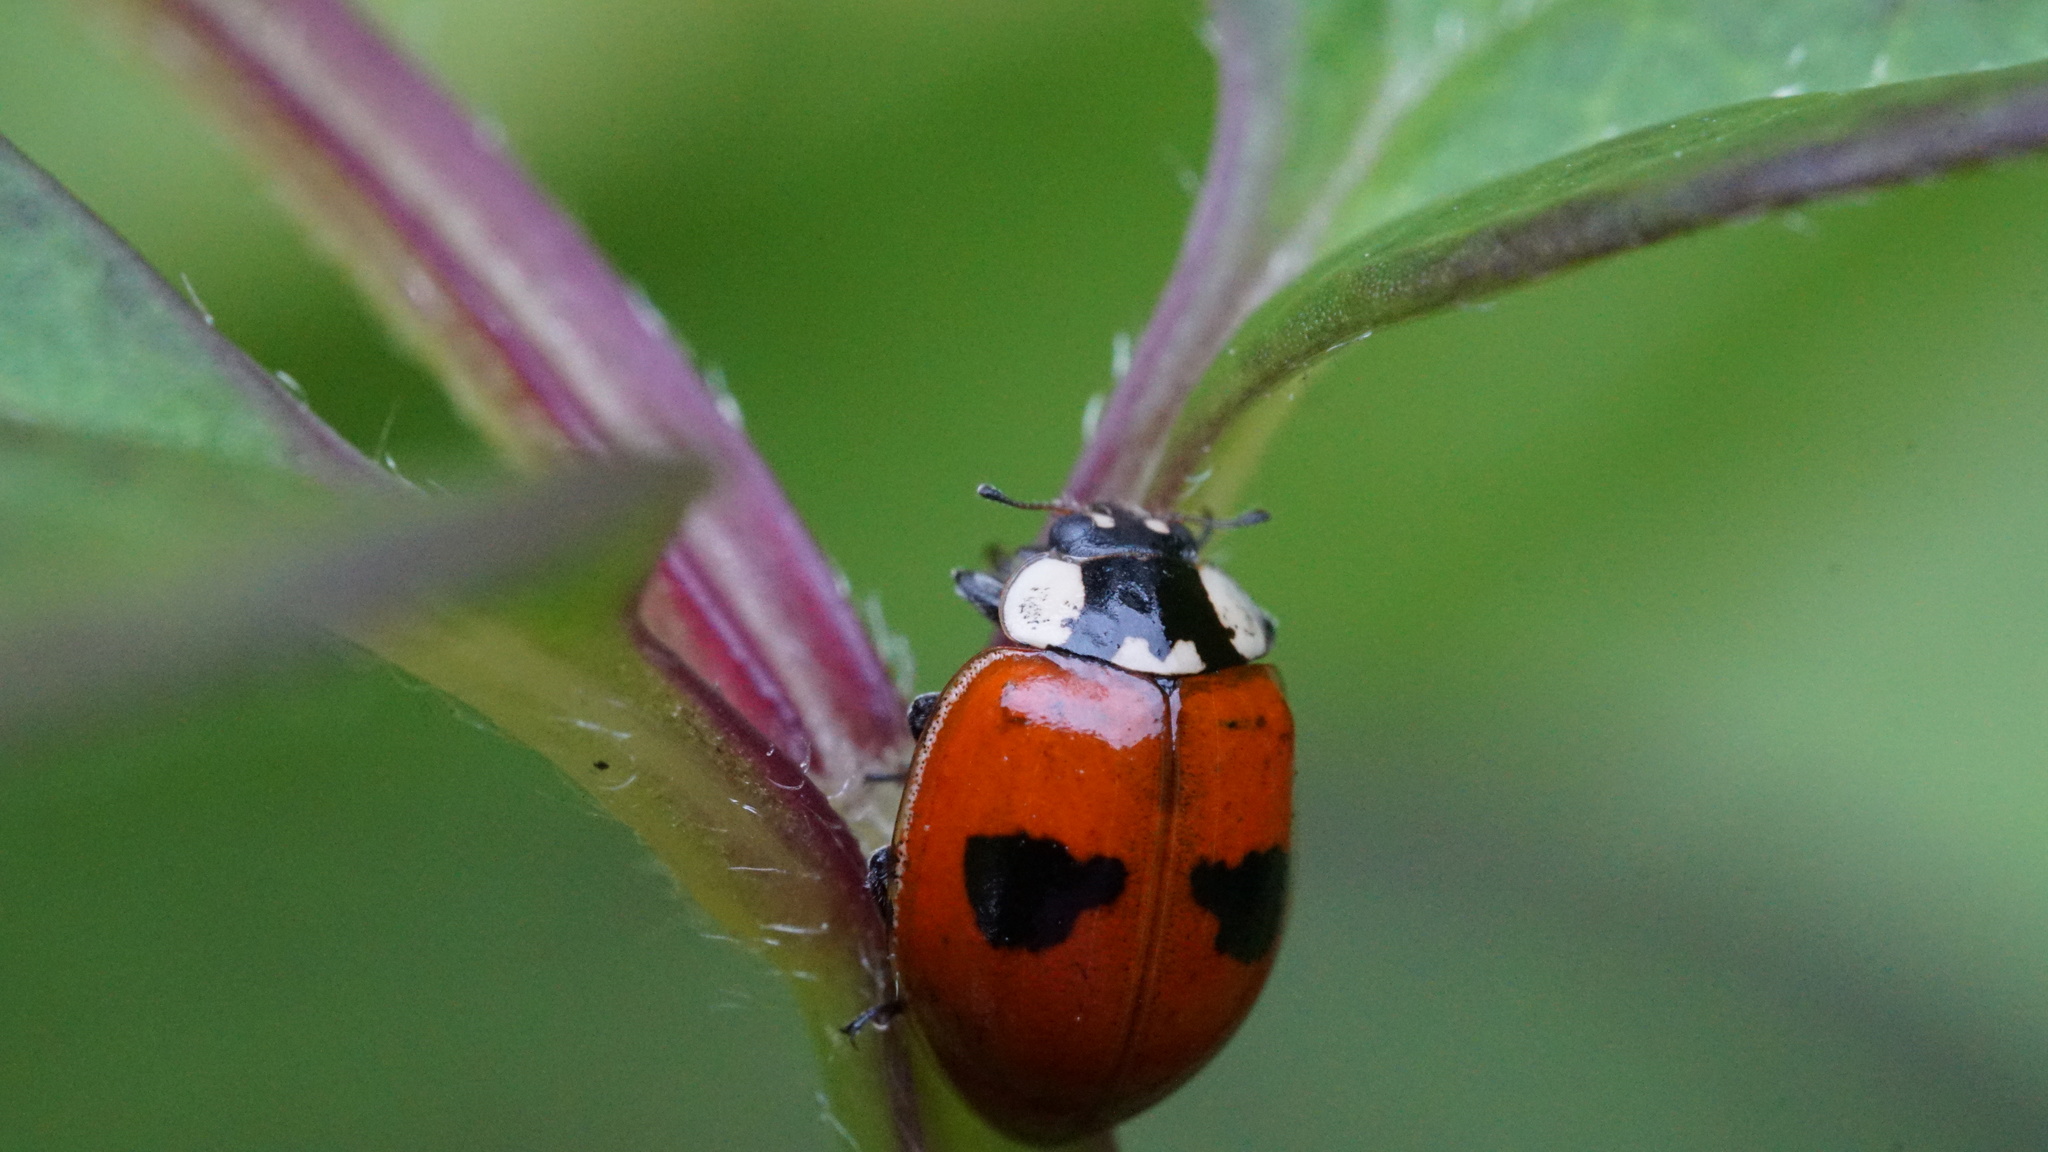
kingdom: Animalia
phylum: Arthropoda
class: Insecta
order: Coleoptera
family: Coccinellidae
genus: Adalia
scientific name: Adalia bipunctata
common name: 2-spot ladybird
